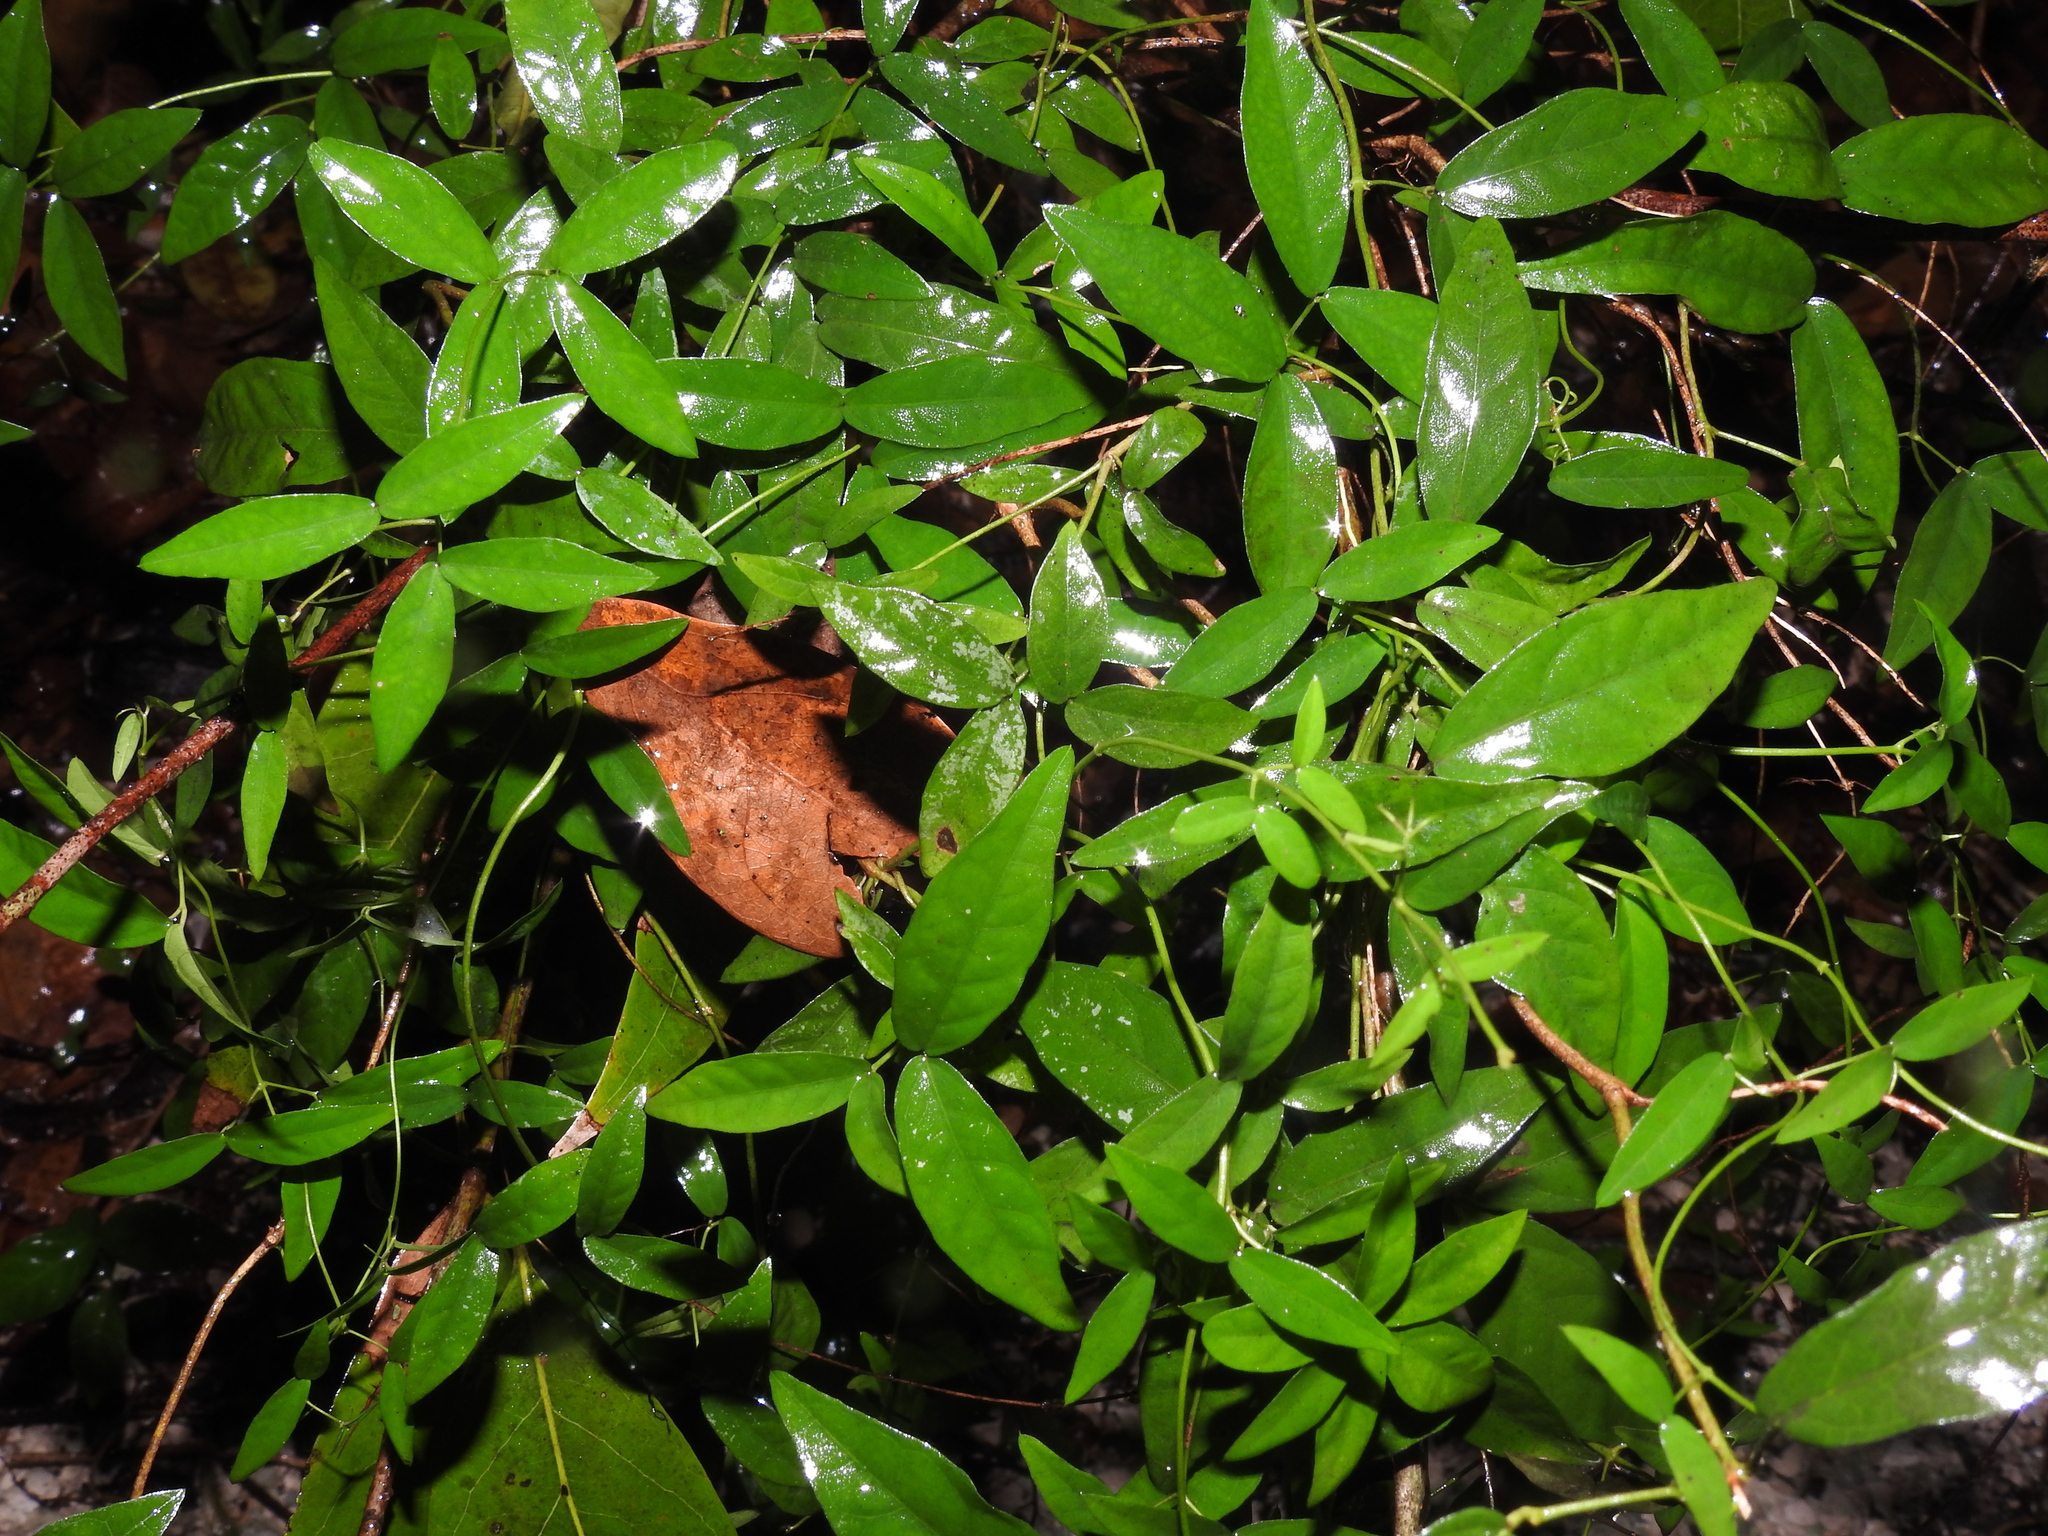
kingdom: Plantae
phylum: Tracheophyta
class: Magnoliopsida
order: Lamiales
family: Bignoniaceae
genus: Dolichandra
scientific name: Dolichandra unguis-cati
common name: Catclaw vine
